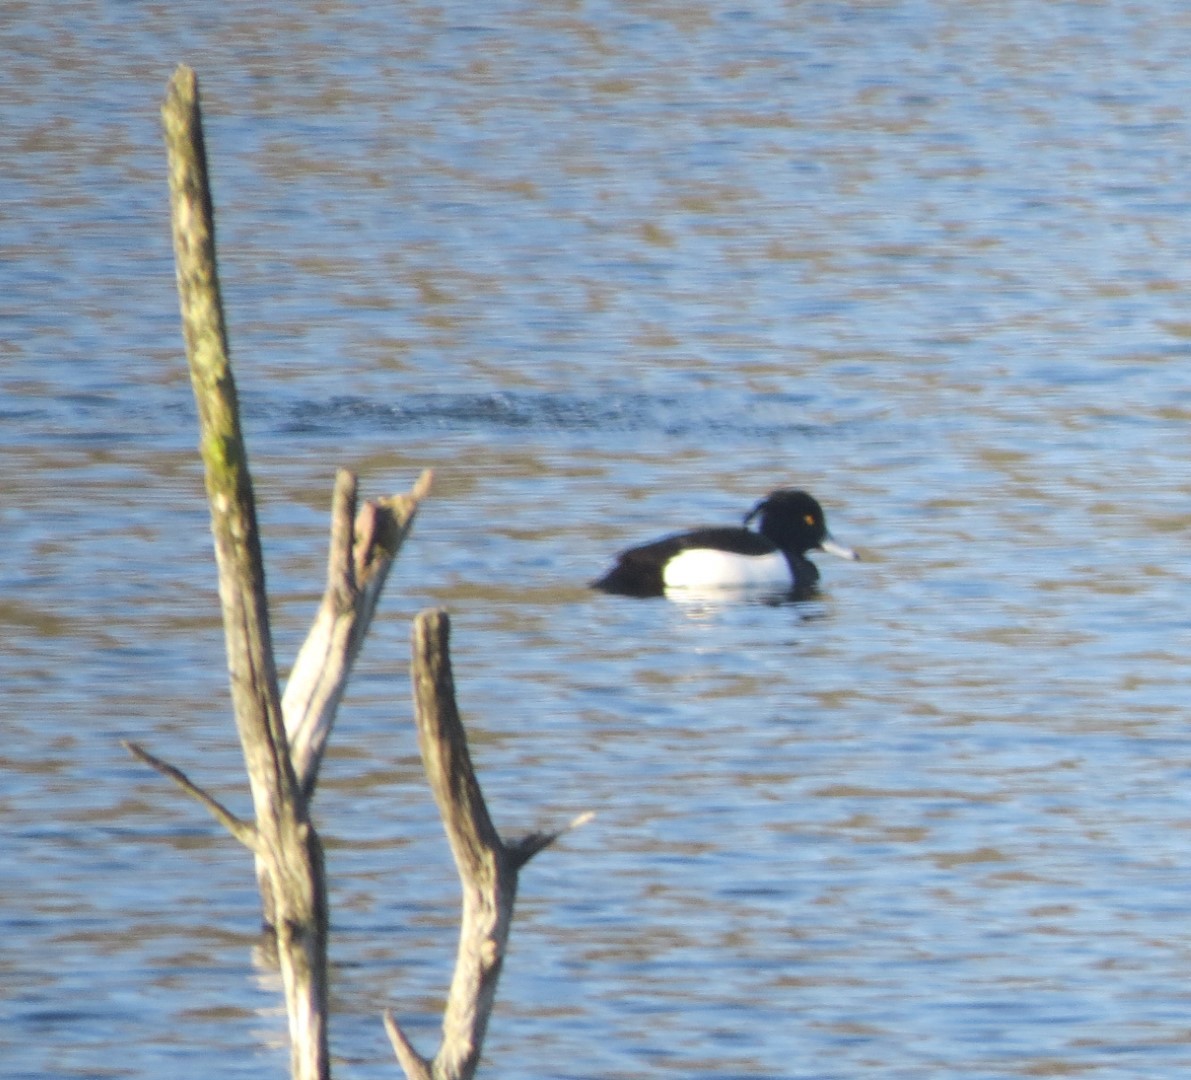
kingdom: Animalia
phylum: Chordata
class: Aves
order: Anseriformes
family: Anatidae
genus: Aythya
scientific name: Aythya fuligula
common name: Tufted duck
